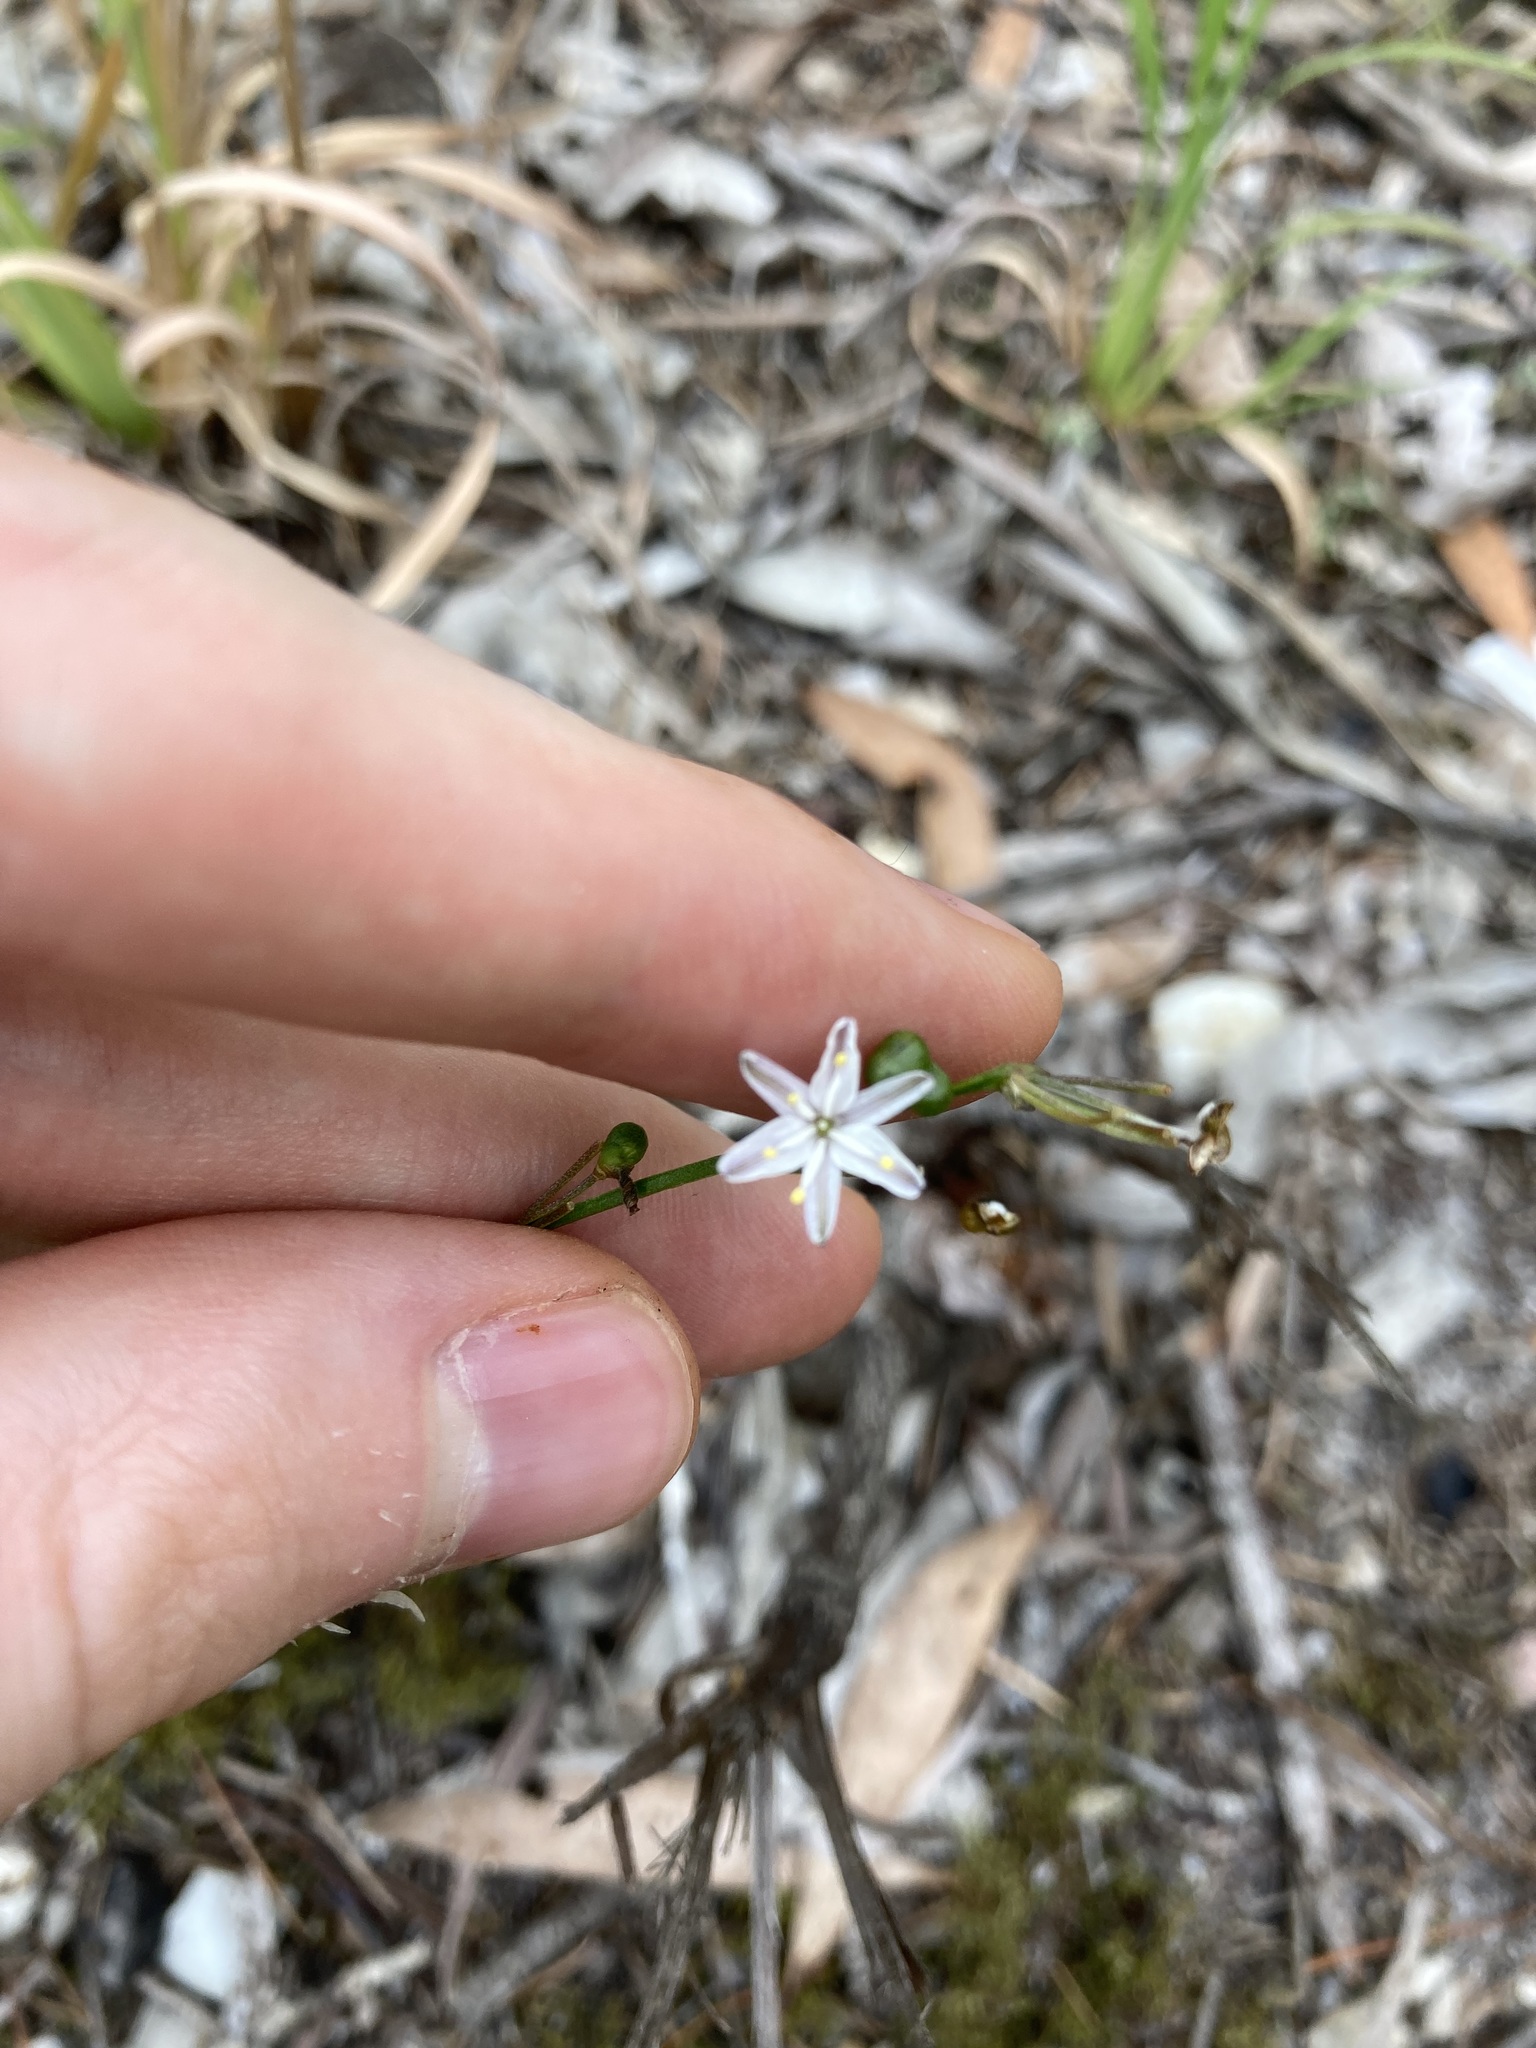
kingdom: Plantae
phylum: Tracheophyta
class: Liliopsida
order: Asparagales
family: Asphodelaceae
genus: Caesia
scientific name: Caesia parviflora
